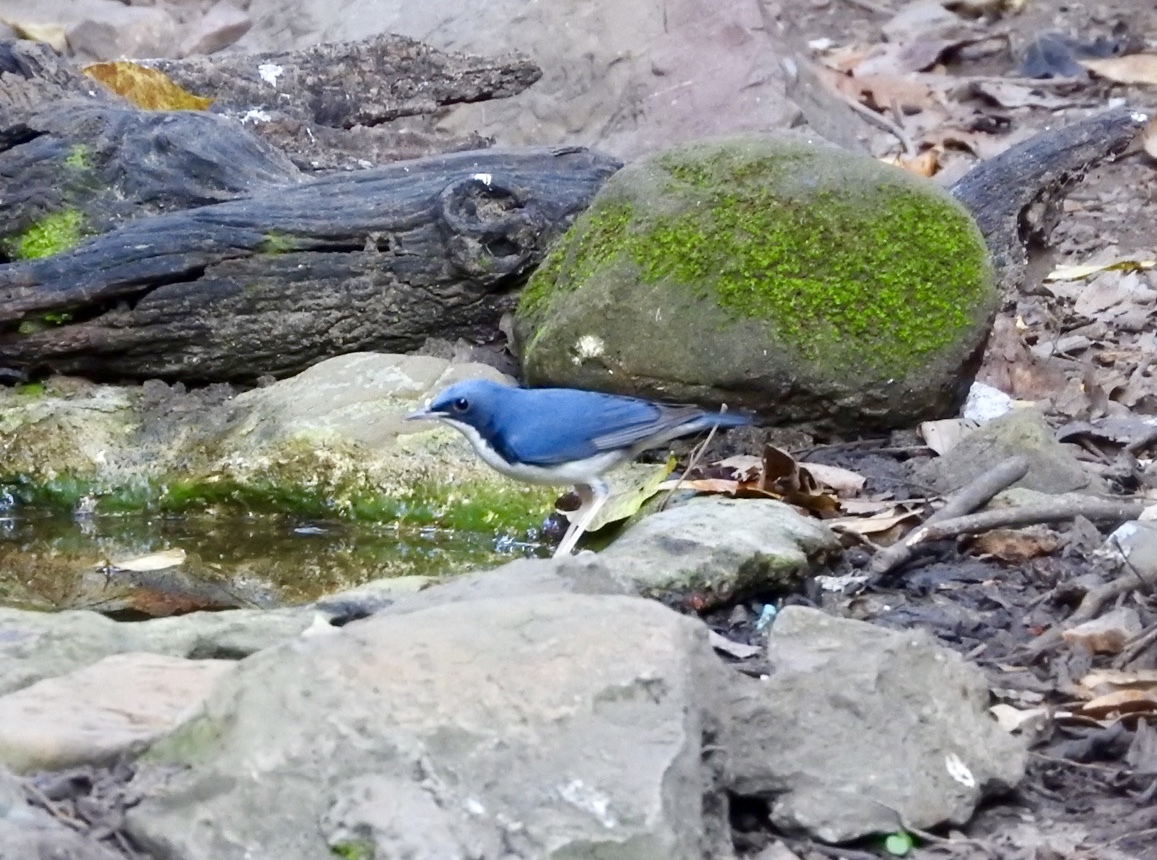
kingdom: Animalia
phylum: Chordata
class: Aves
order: Passeriformes
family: Muscicapidae
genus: Luscinia
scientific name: Luscinia cyane
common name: Siberian blue robin
